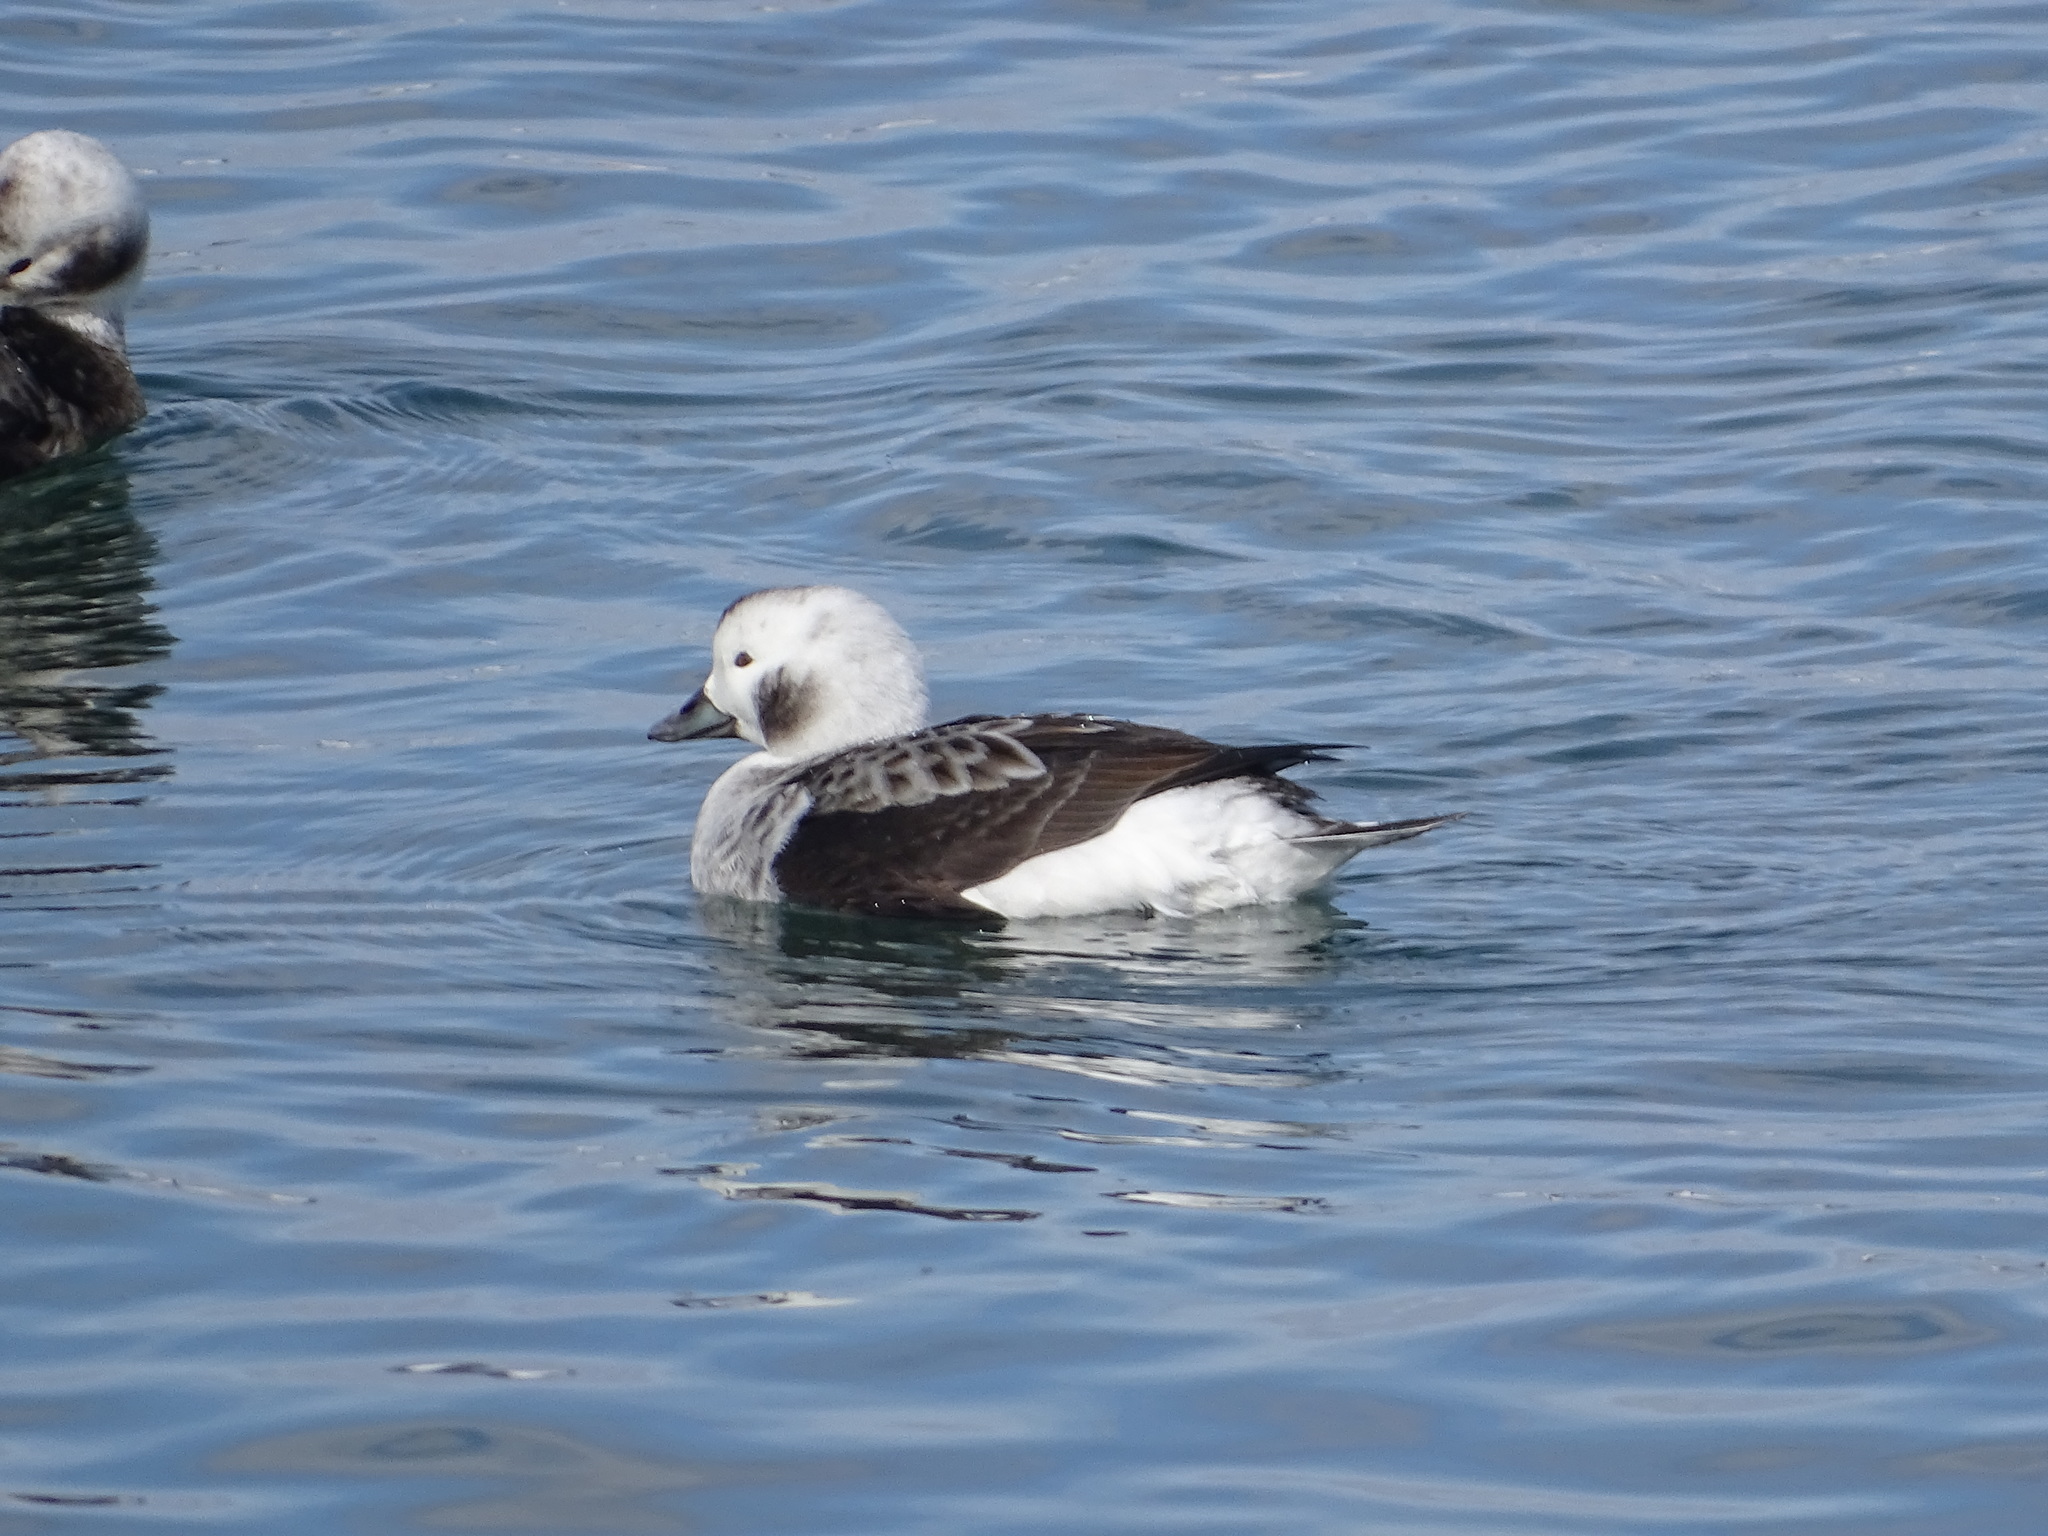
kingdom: Animalia
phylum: Chordata
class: Aves
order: Anseriformes
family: Anatidae
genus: Clangula
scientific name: Clangula hyemalis
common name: Long-tailed duck
